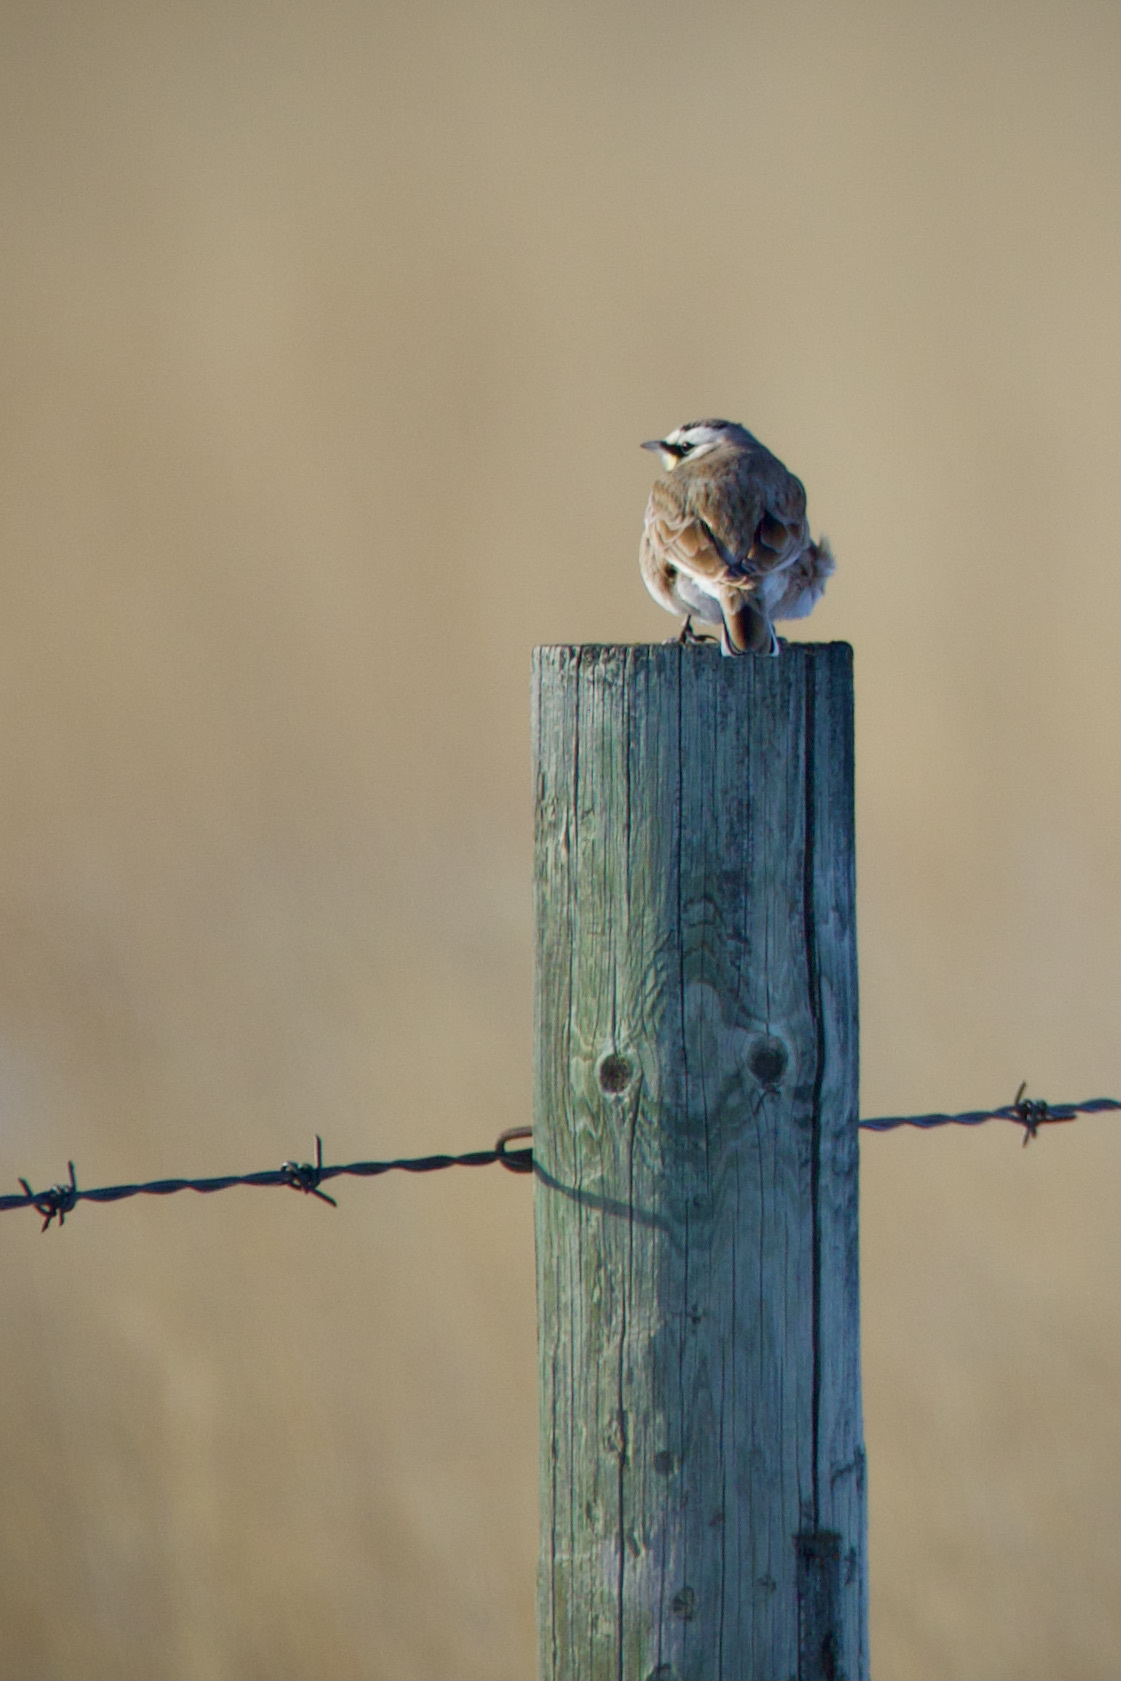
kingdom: Animalia
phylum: Chordata
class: Aves
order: Passeriformes
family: Alaudidae
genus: Eremophila
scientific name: Eremophila alpestris
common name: Horned lark
